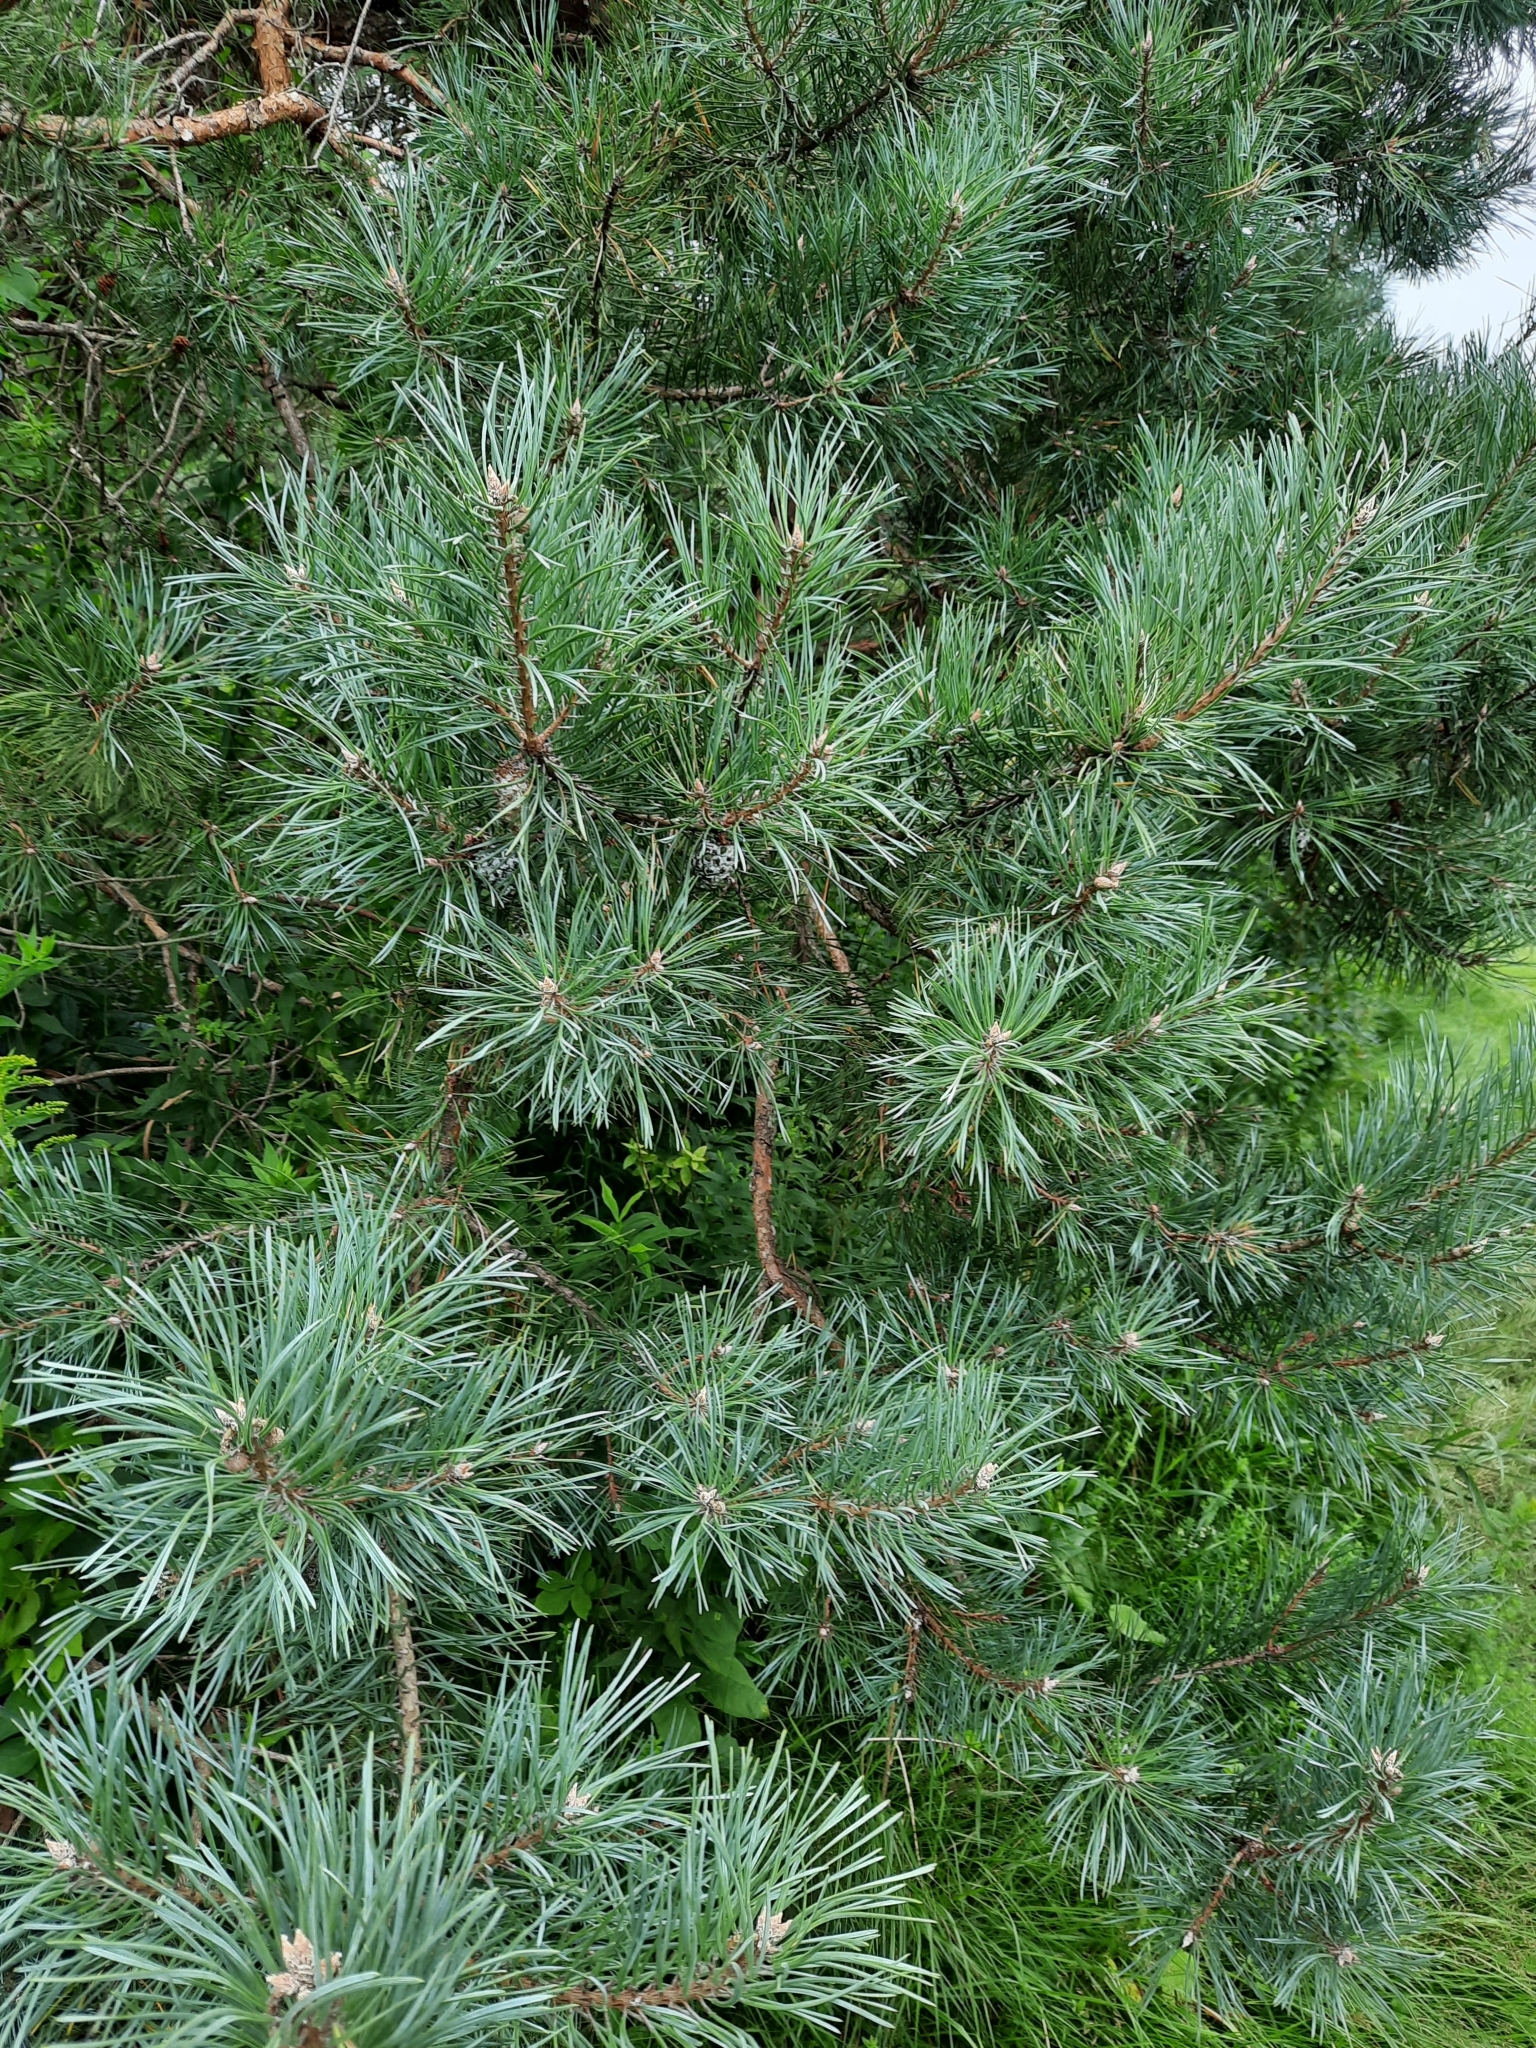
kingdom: Plantae
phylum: Tracheophyta
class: Pinopsida
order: Pinales
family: Pinaceae
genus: Pinus
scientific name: Pinus sylvestris
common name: Scots pine
